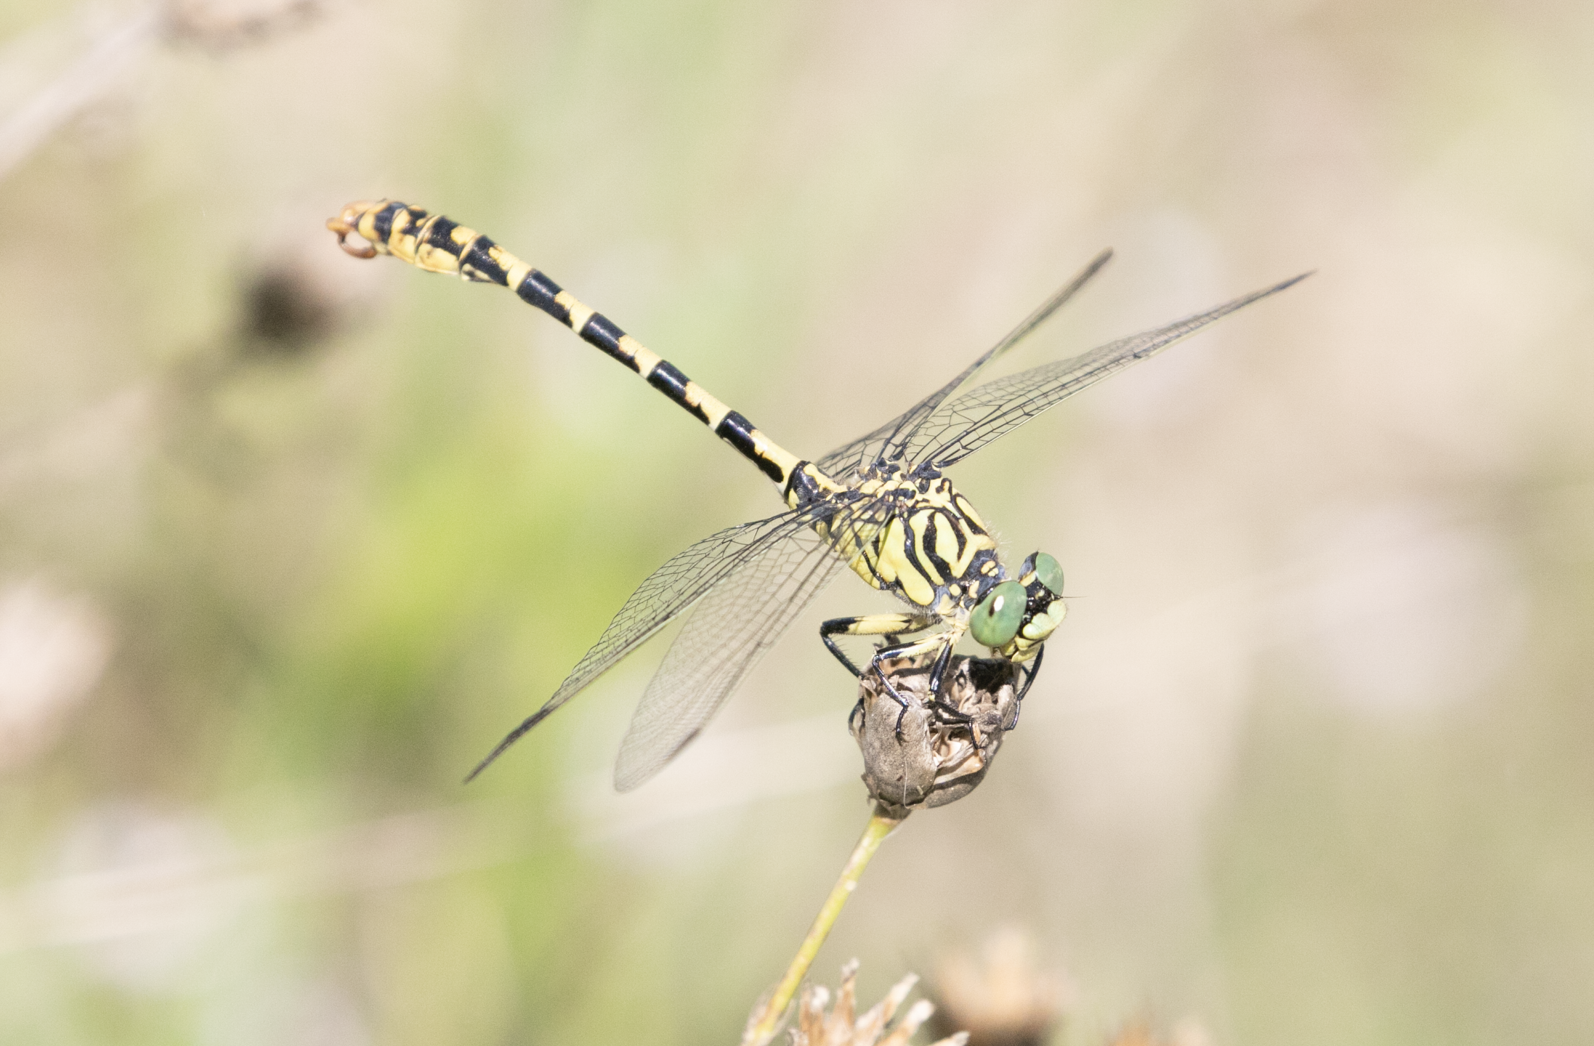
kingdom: Animalia
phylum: Arthropoda
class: Insecta
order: Odonata
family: Gomphidae
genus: Onychogomphus
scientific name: Onychogomphus forcipatus
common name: Small pincertail
